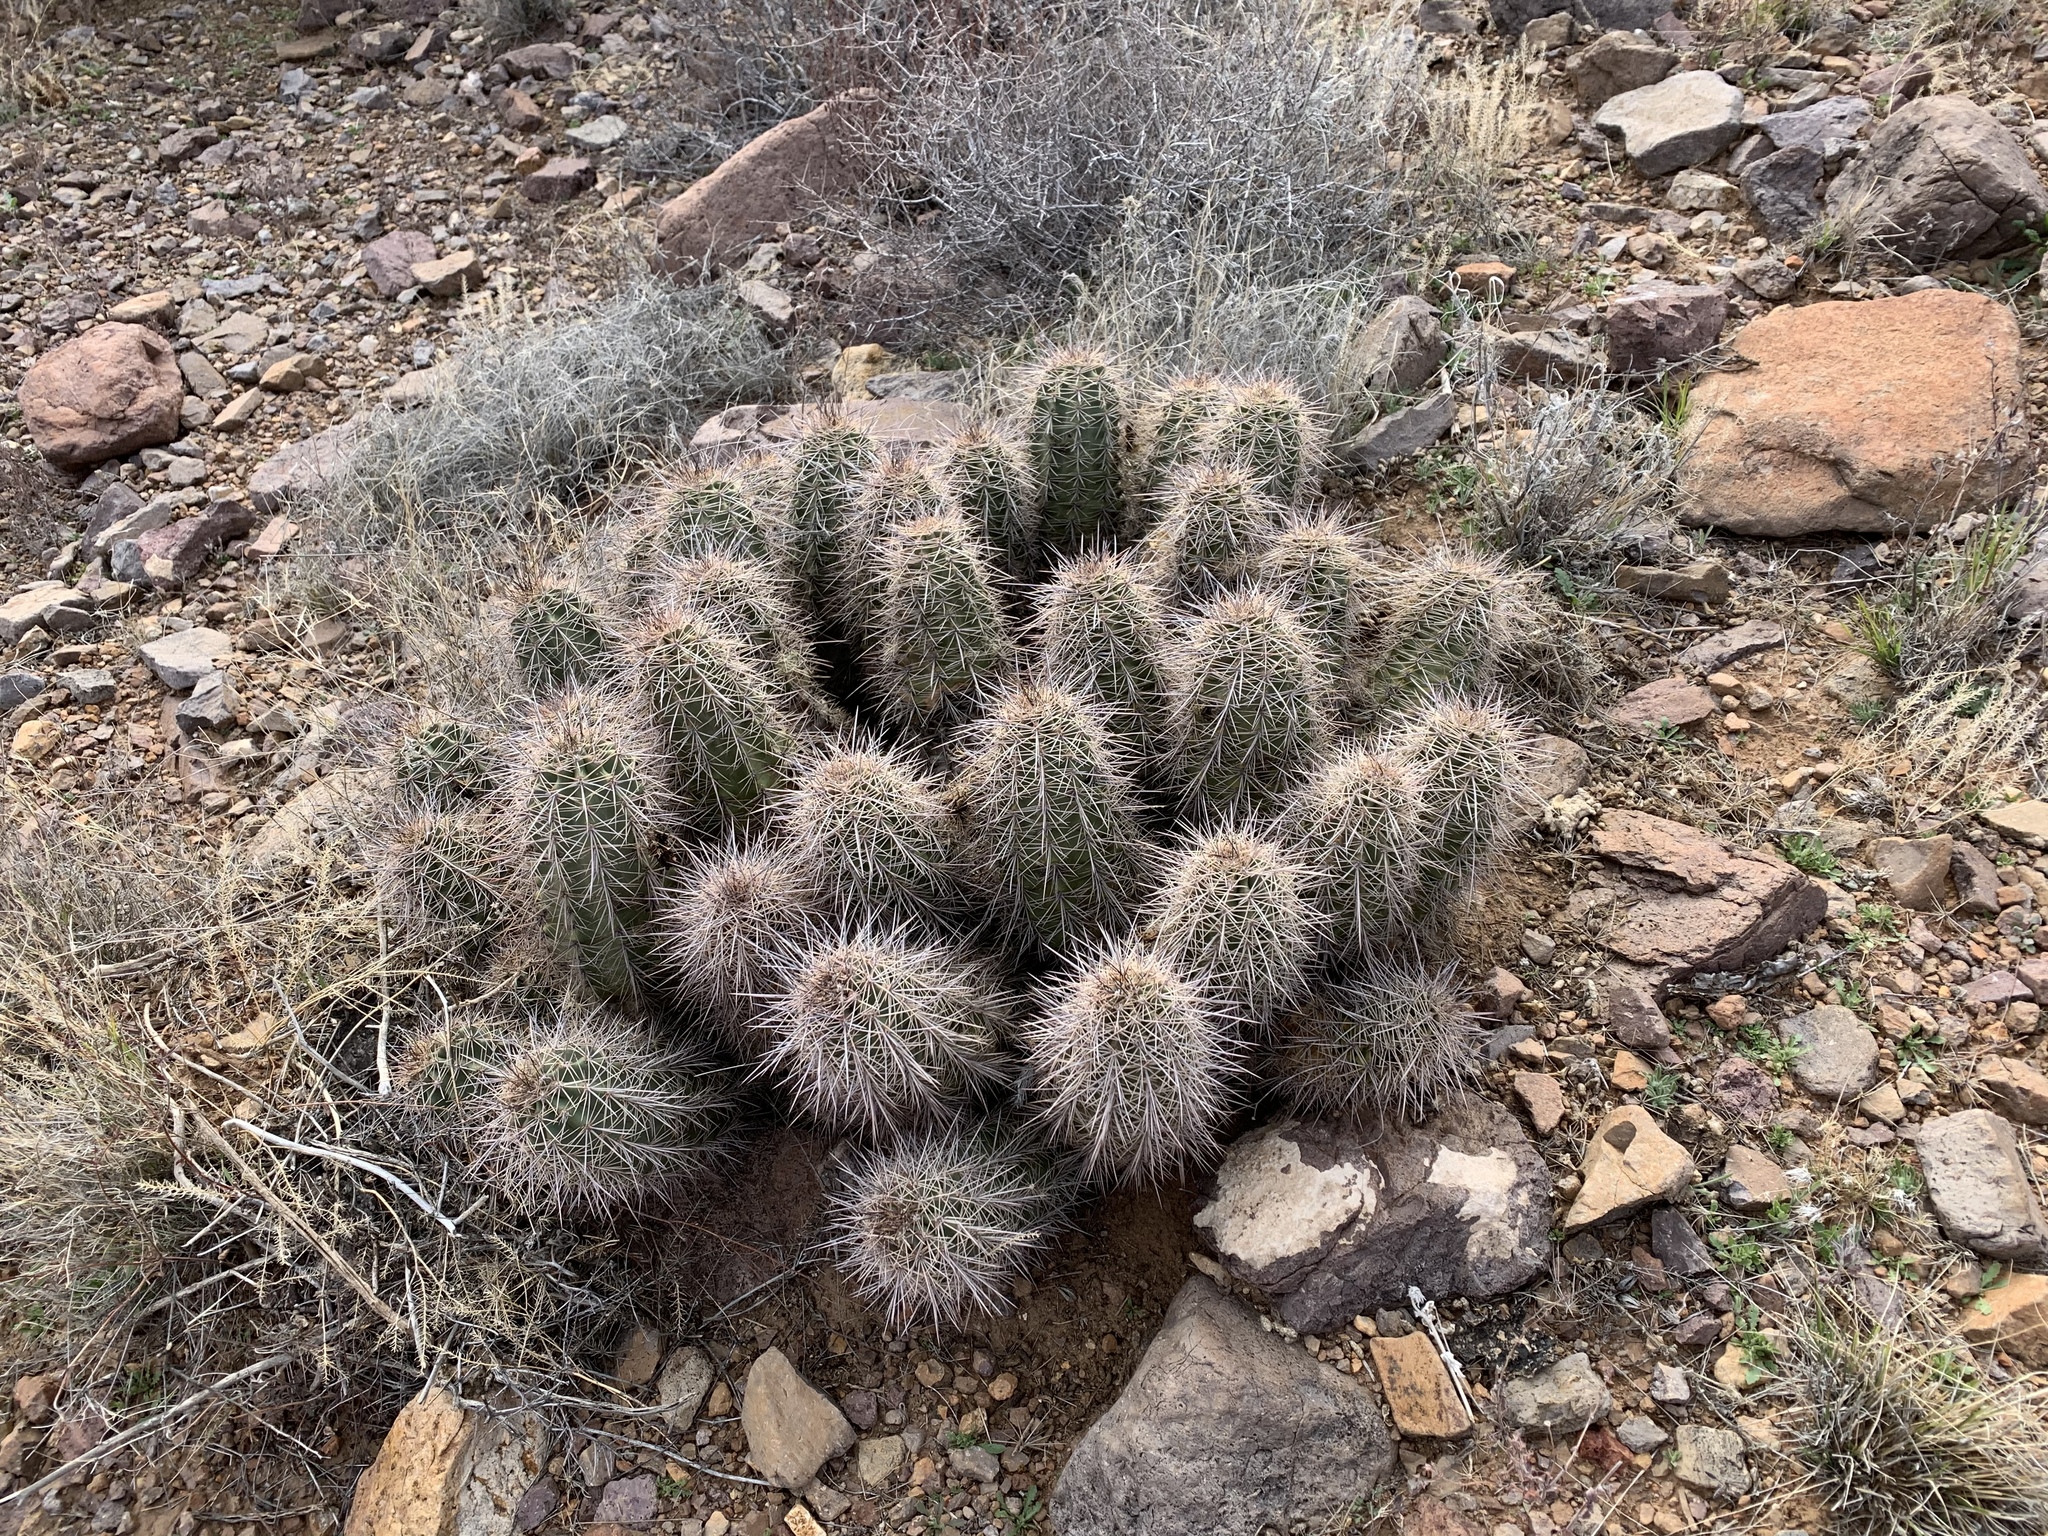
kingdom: Plantae
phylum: Tracheophyta
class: Magnoliopsida
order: Caryophyllales
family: Cactaceae
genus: Echinocereus
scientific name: Echinocereus coccineus
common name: Scarlet hedgehog cactus
